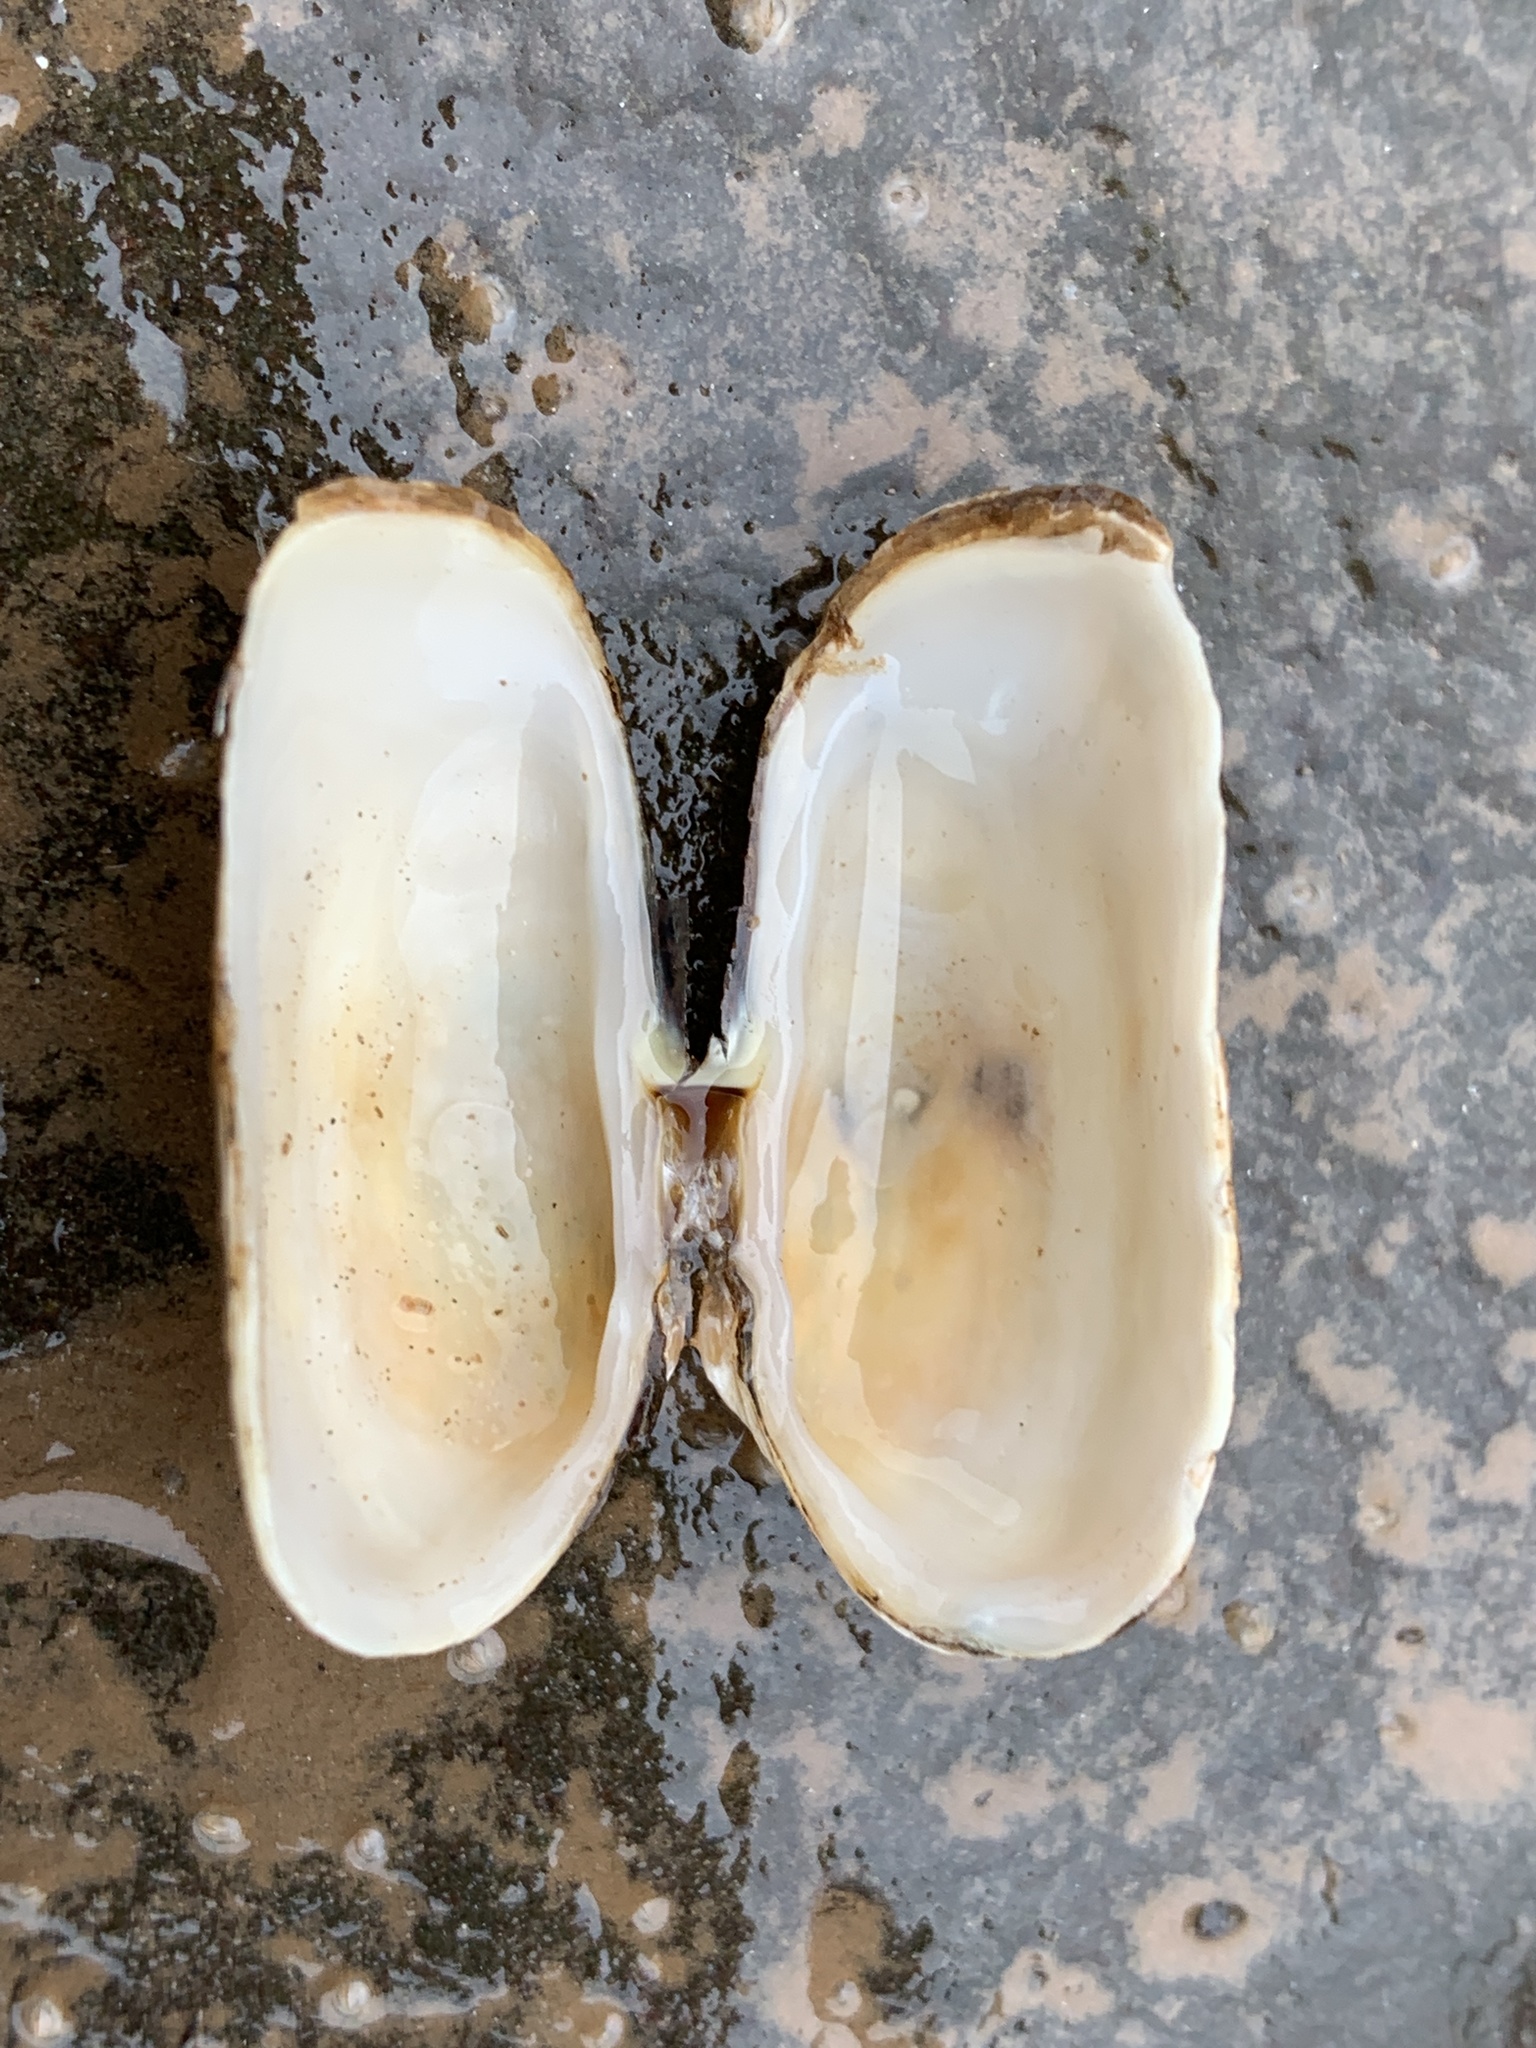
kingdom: Animalia
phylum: Mollusca
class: Bivalvia
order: Adapedonta
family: Hiatellidae
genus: Hiatella
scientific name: Hiatella arctica
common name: Arctic hiatella
